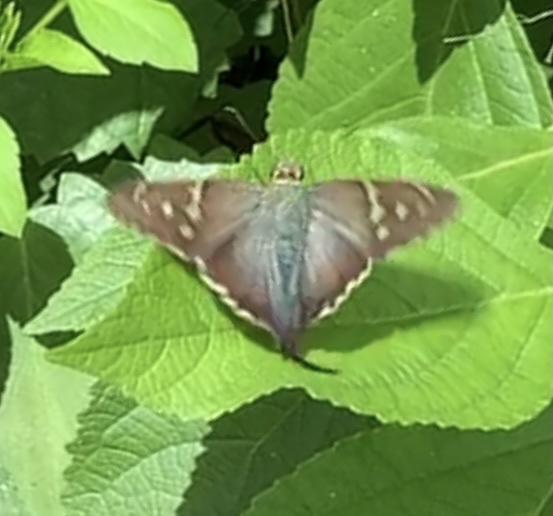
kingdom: Animalia
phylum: Arthropoda
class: Insecta
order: Lepidoptera
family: Hesperiidae
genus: Urbanus
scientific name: Urbanus proteus
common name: Long-tailed skipper
